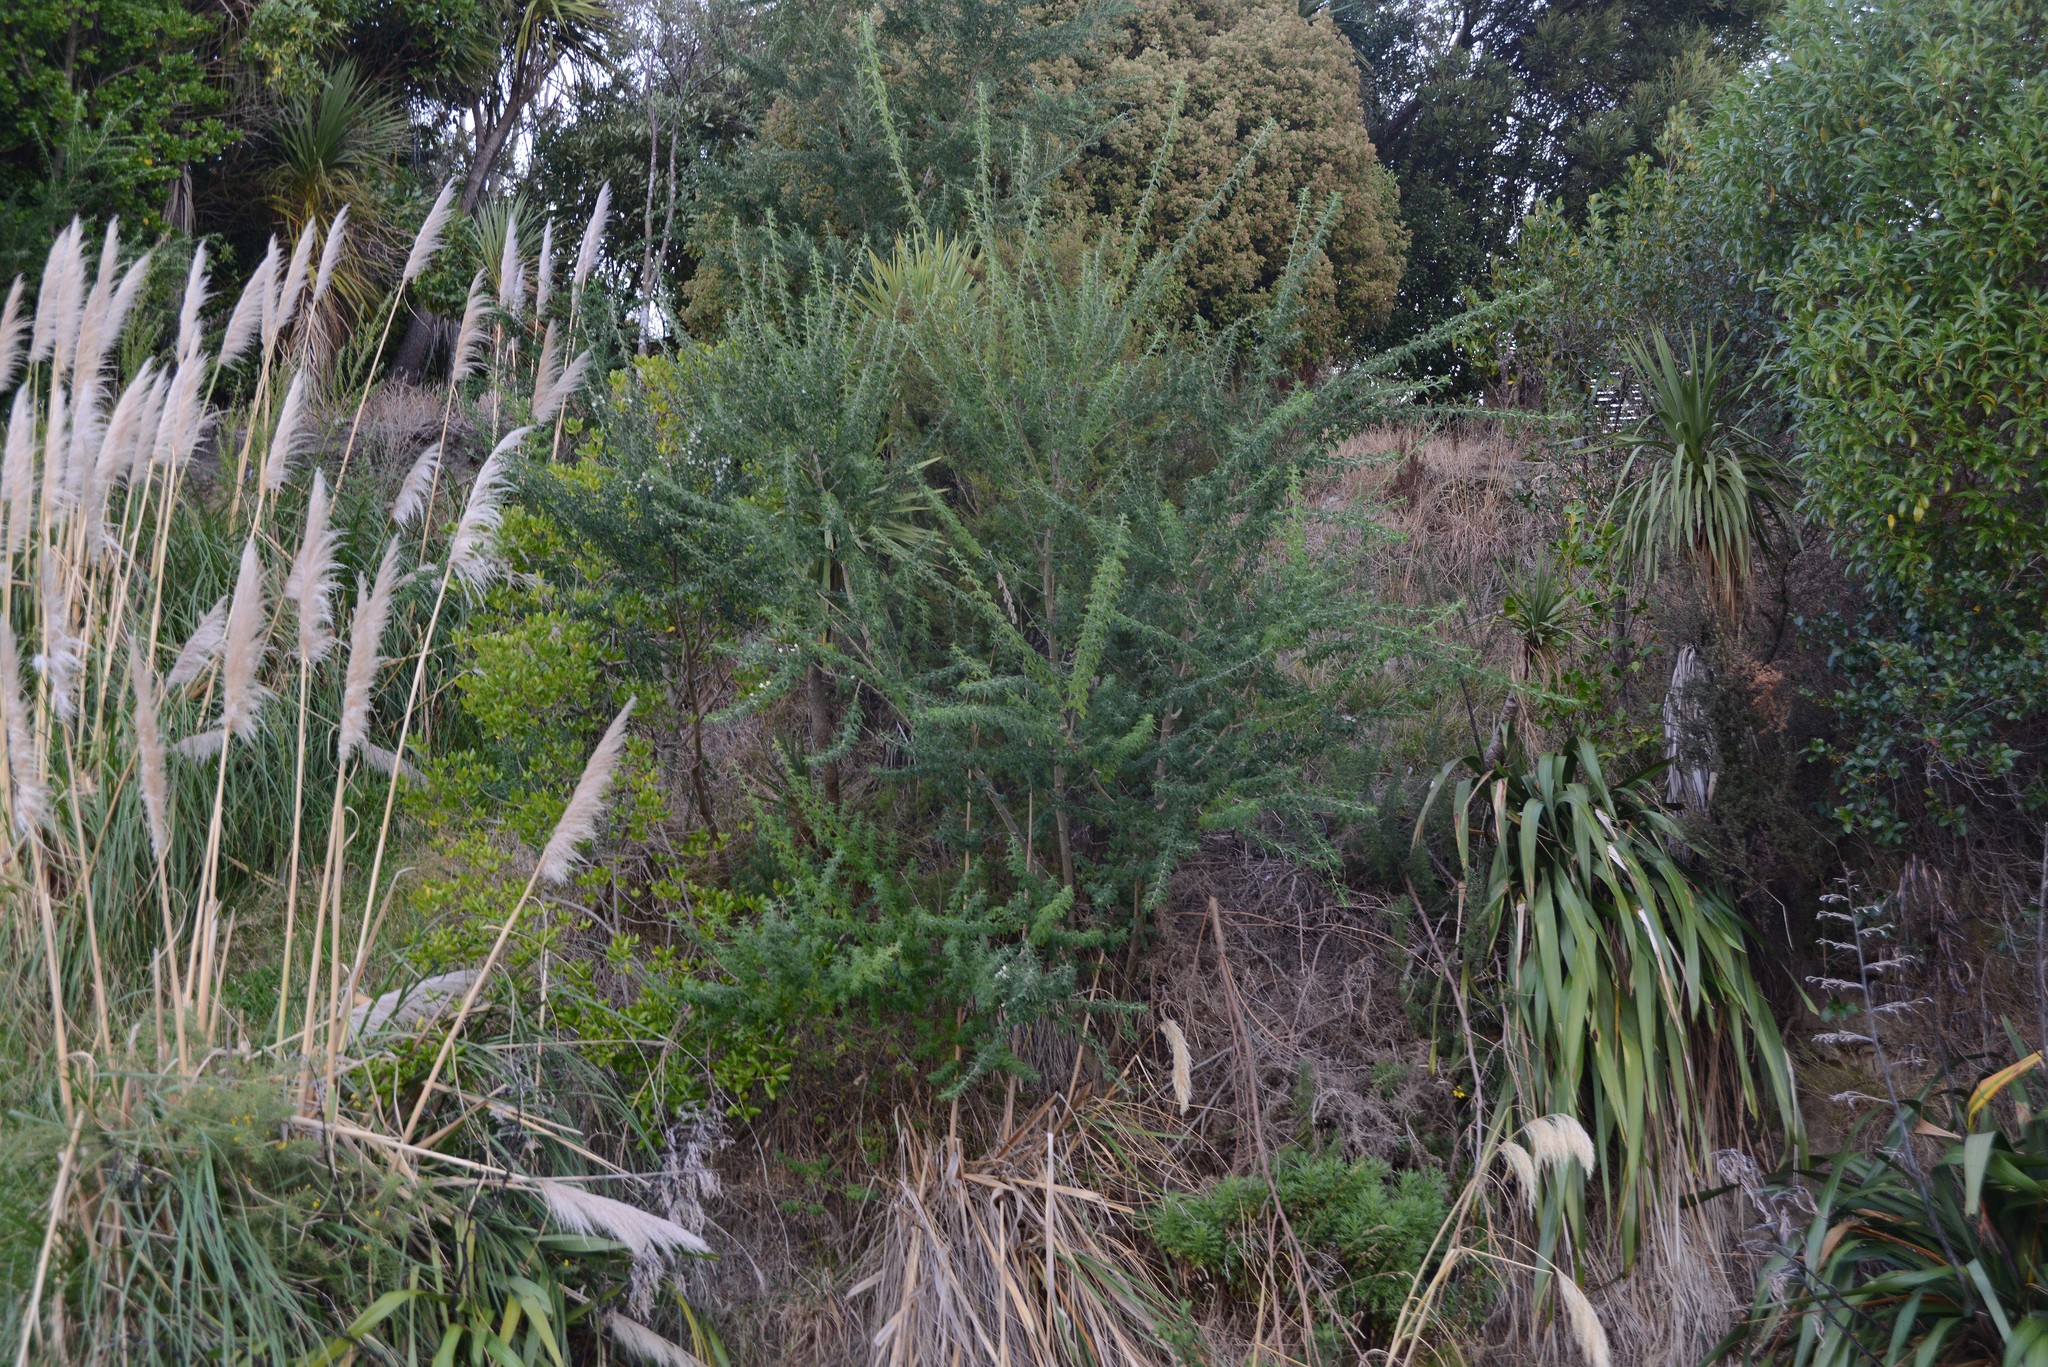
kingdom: Plantae
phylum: Tracheophyta
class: Magnoliopsida
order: Asterales
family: Asteraceae
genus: Osteospermum
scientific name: Osteospermum moniliferum
